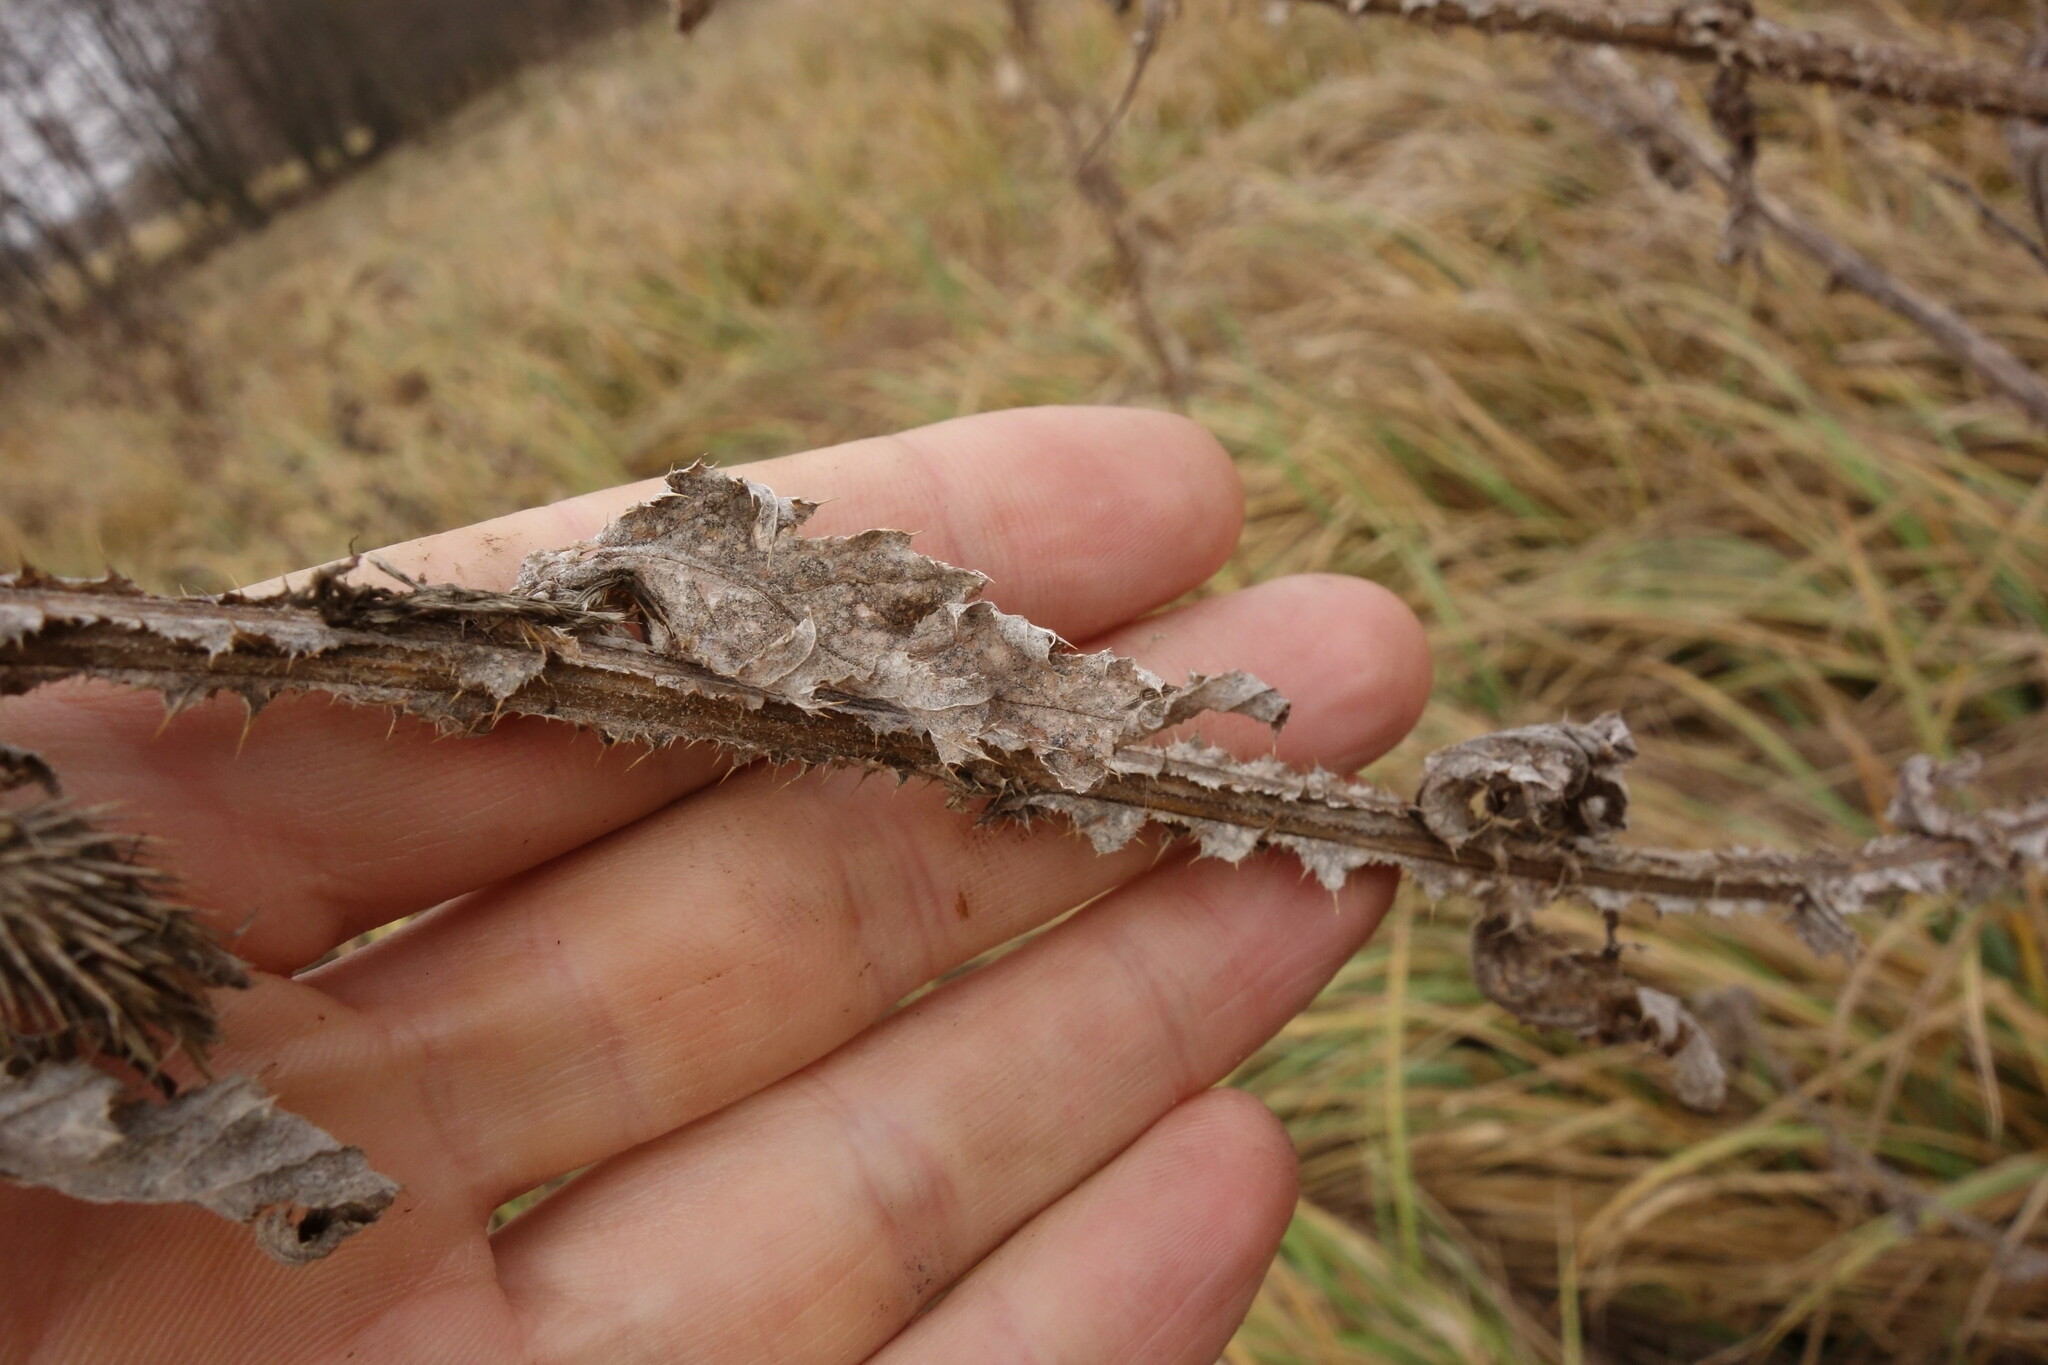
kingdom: Plantae
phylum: Tracheophyta
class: Magnoliopsida
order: Asterales
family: Asteraceae
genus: Carduus
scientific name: Carduus crispus
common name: Welted thistle
